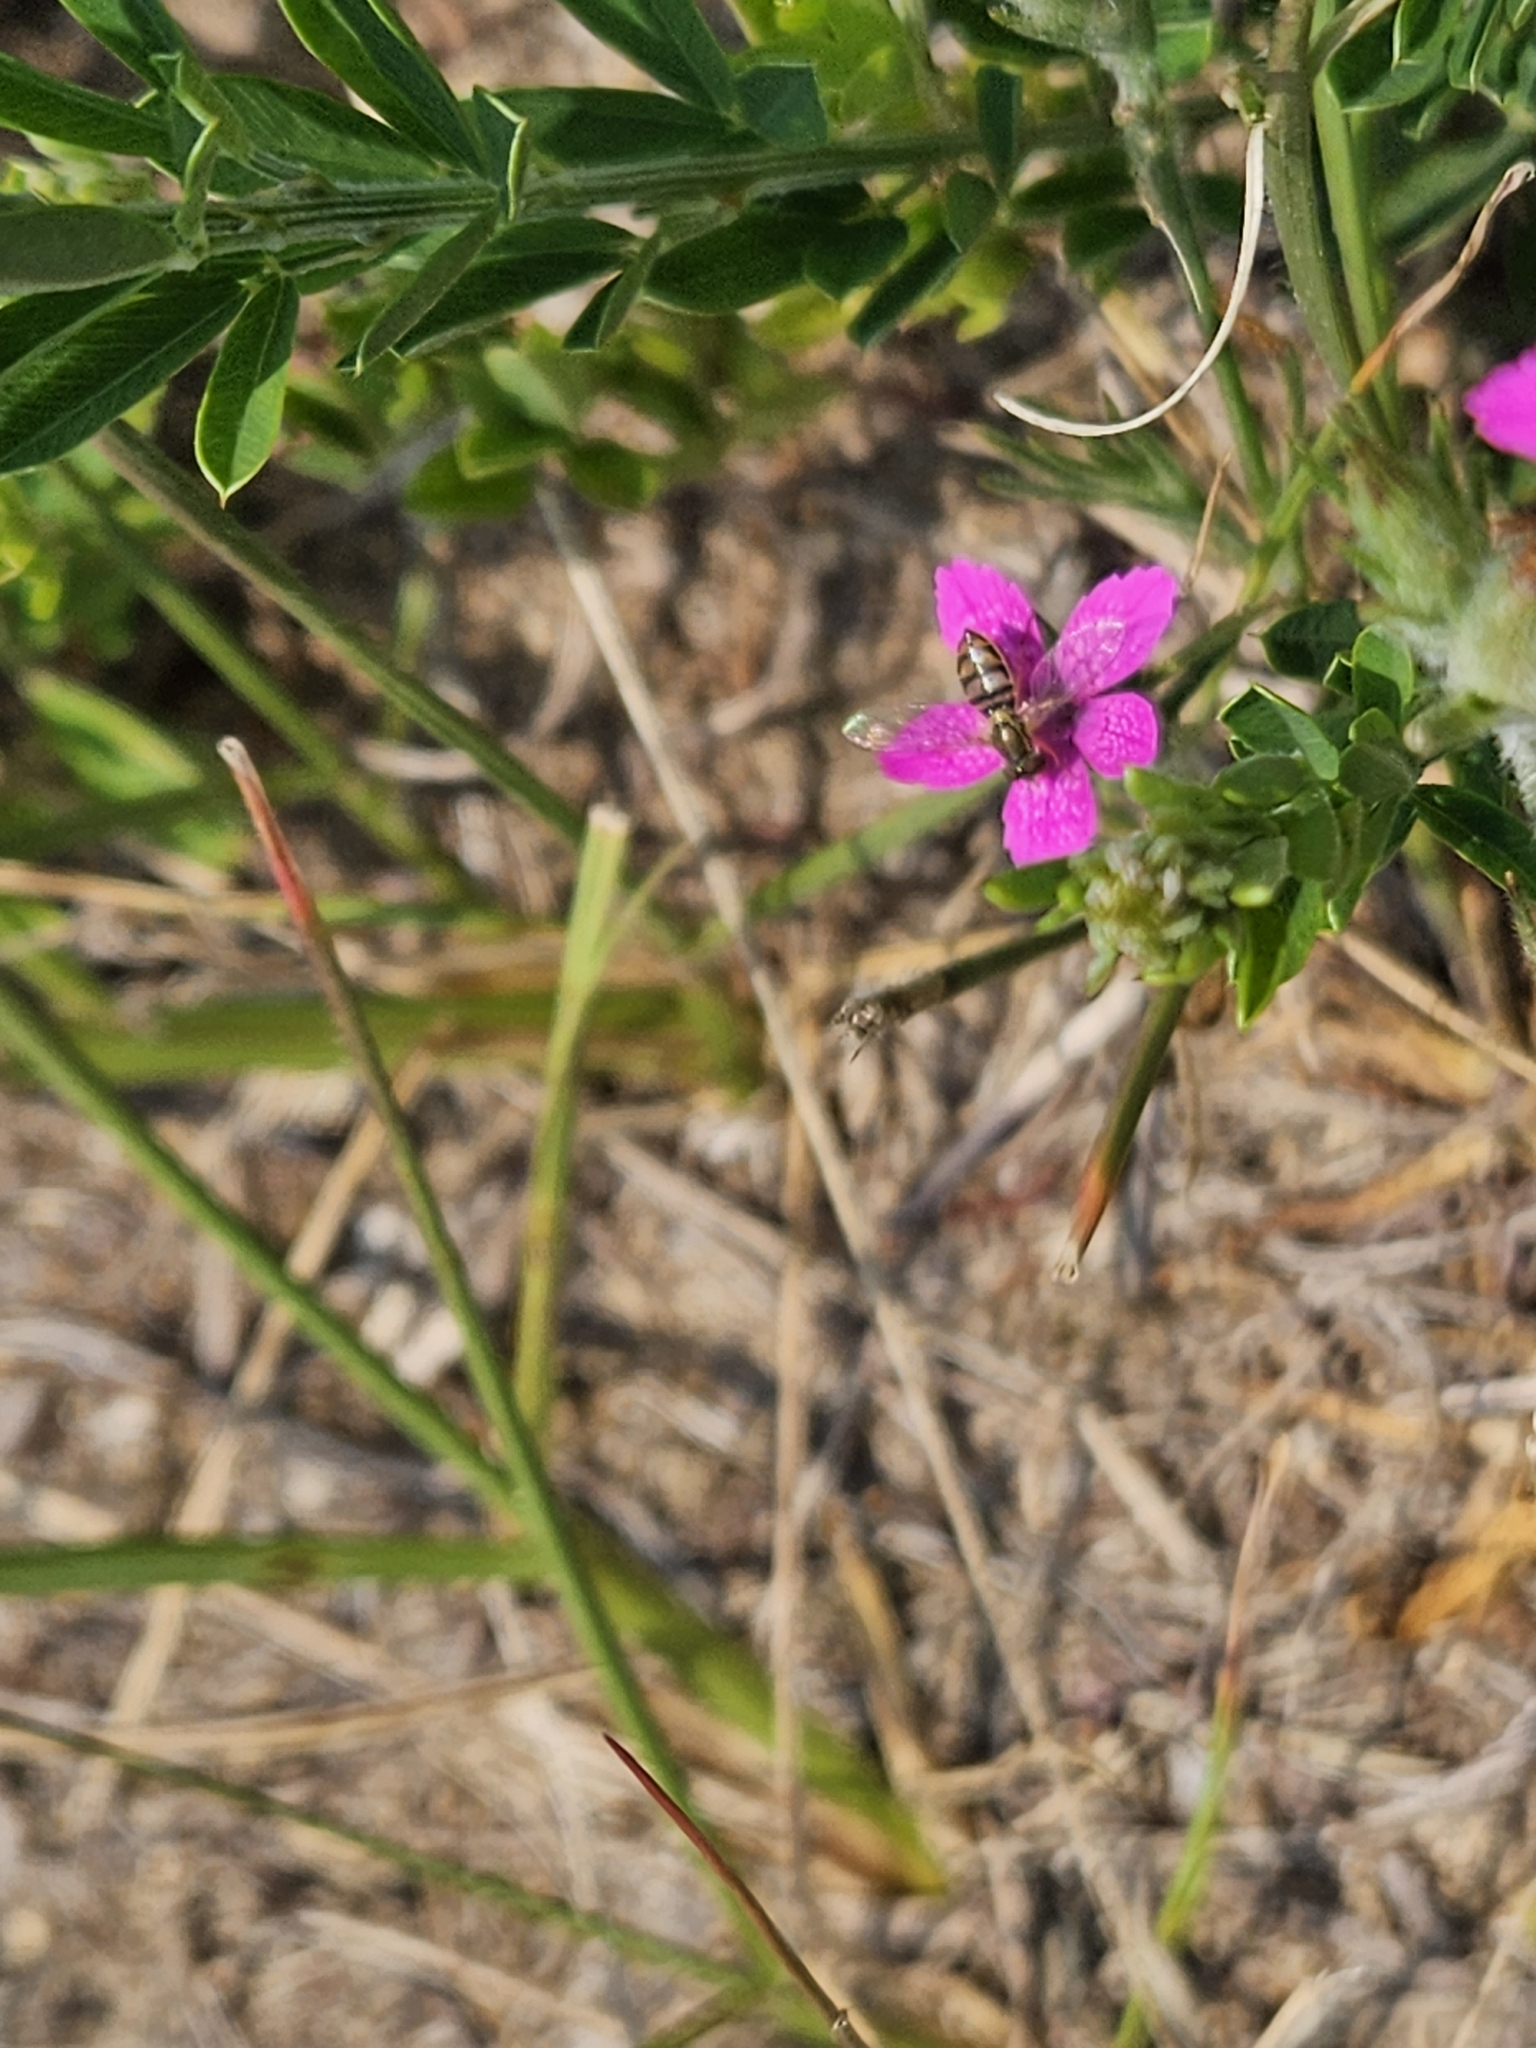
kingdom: Plantae
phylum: Tracheophyta
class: Magnoliopsida
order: Caryophyllales
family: Caryophyllaceae
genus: Dianthus
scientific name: Dianthus armeria
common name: Deptford pink
